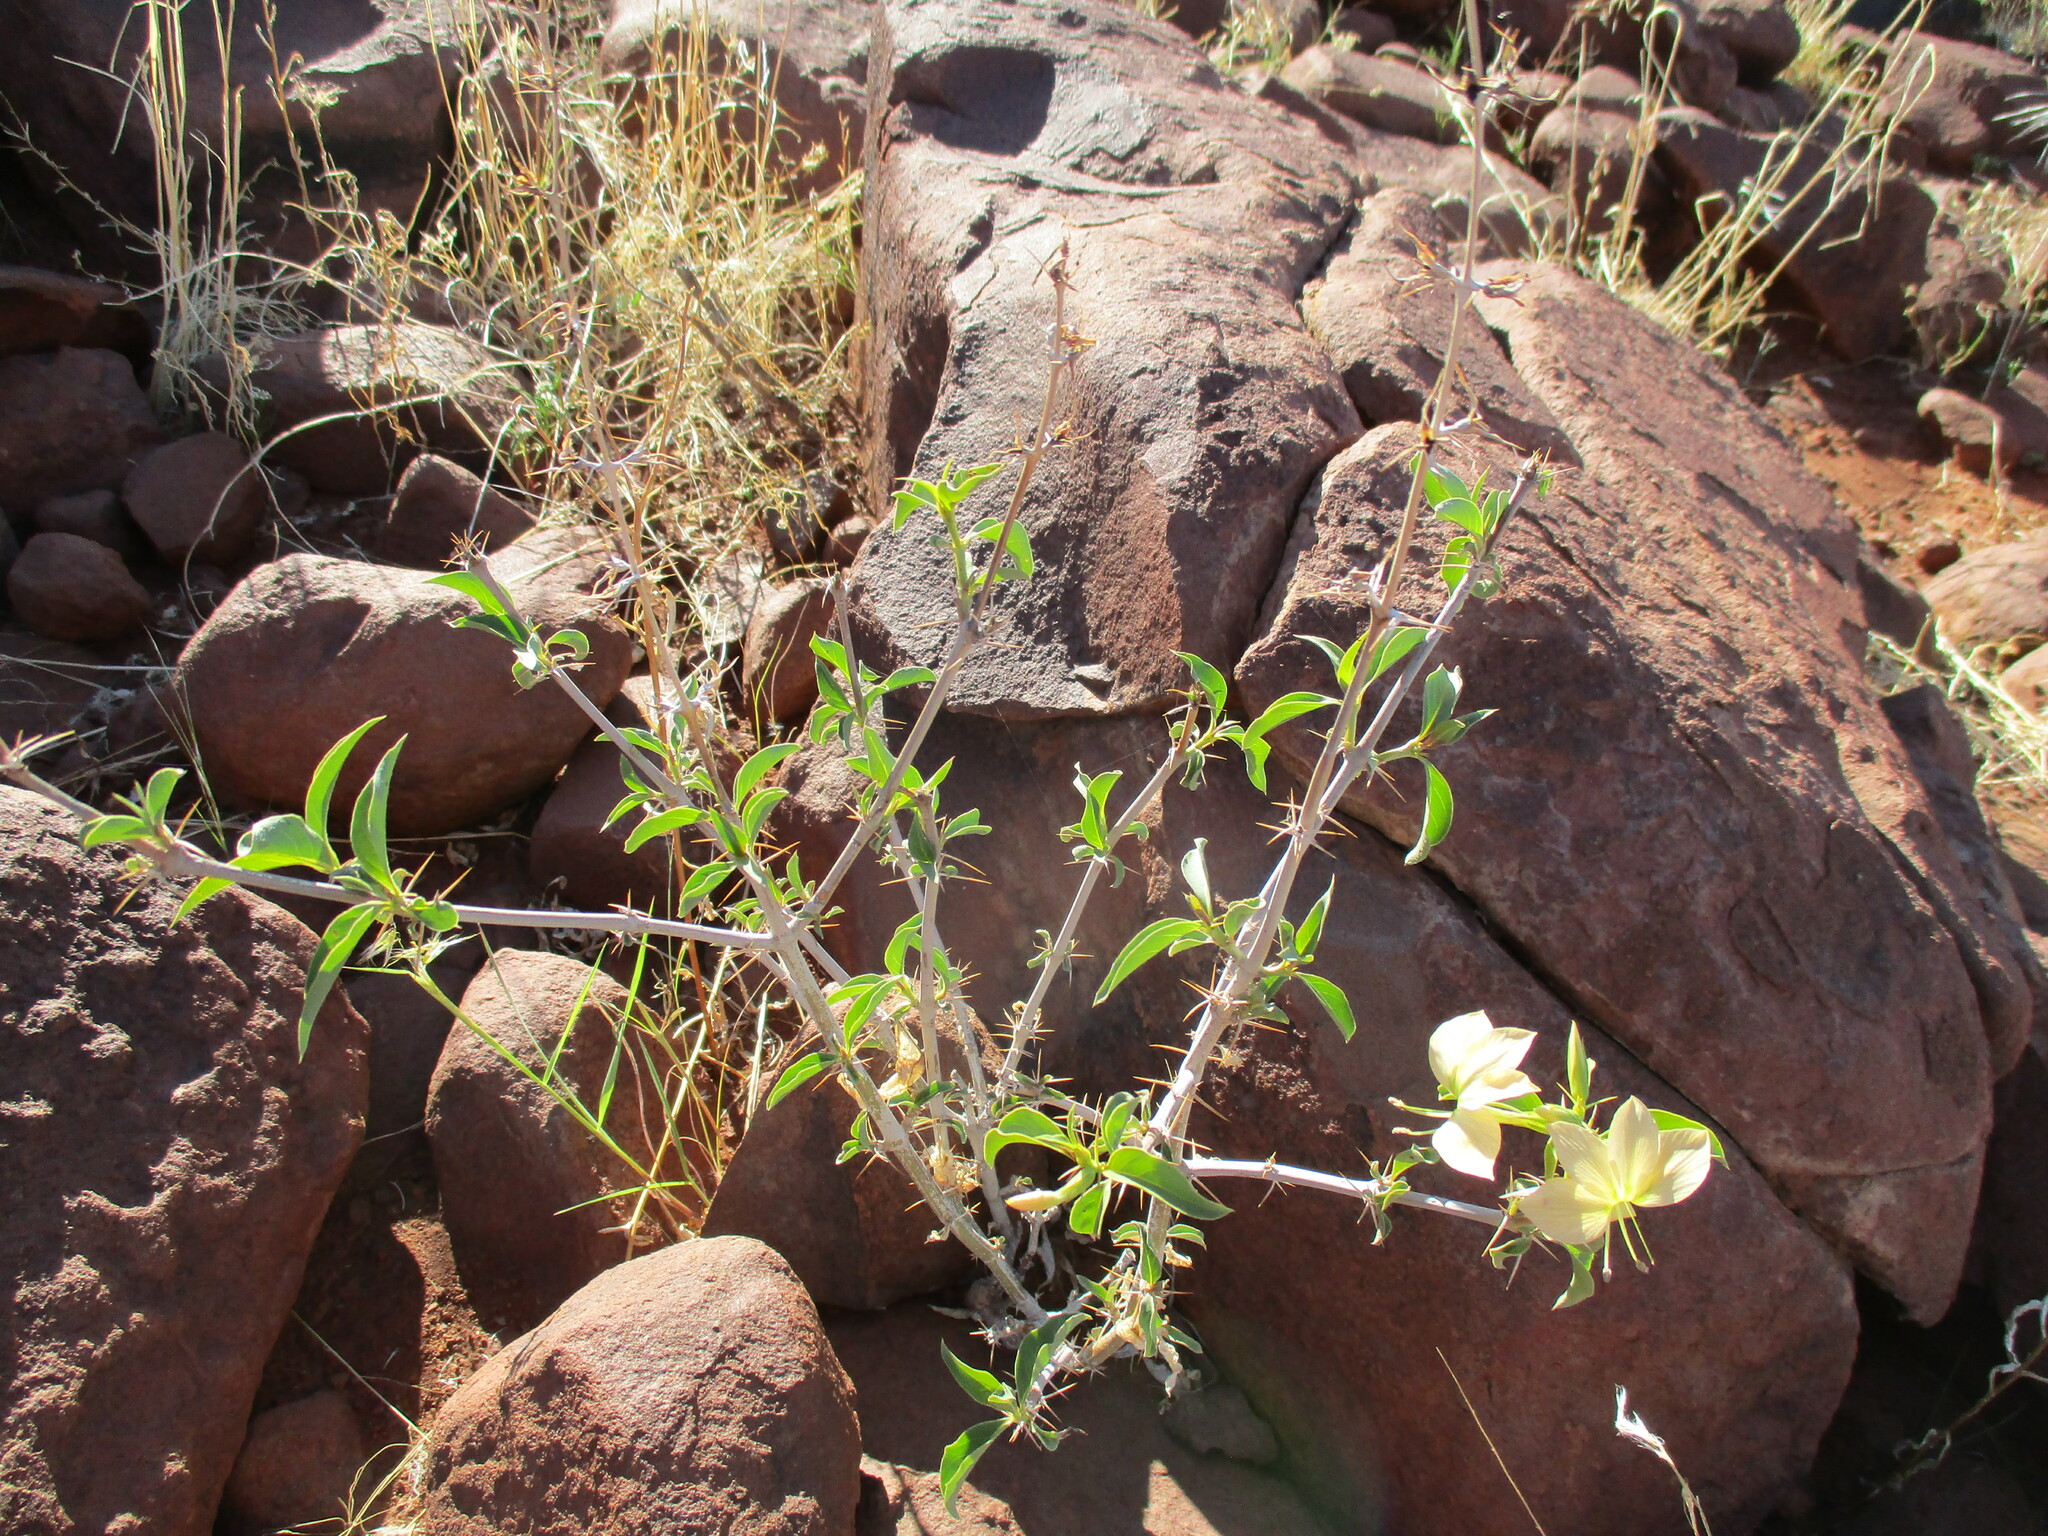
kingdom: Plantae
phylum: Tracheophyta
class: Magnoliopsida
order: Lamiales
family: Acanthaceae
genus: Barleria
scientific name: Barleria prionitis
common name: Barleria
